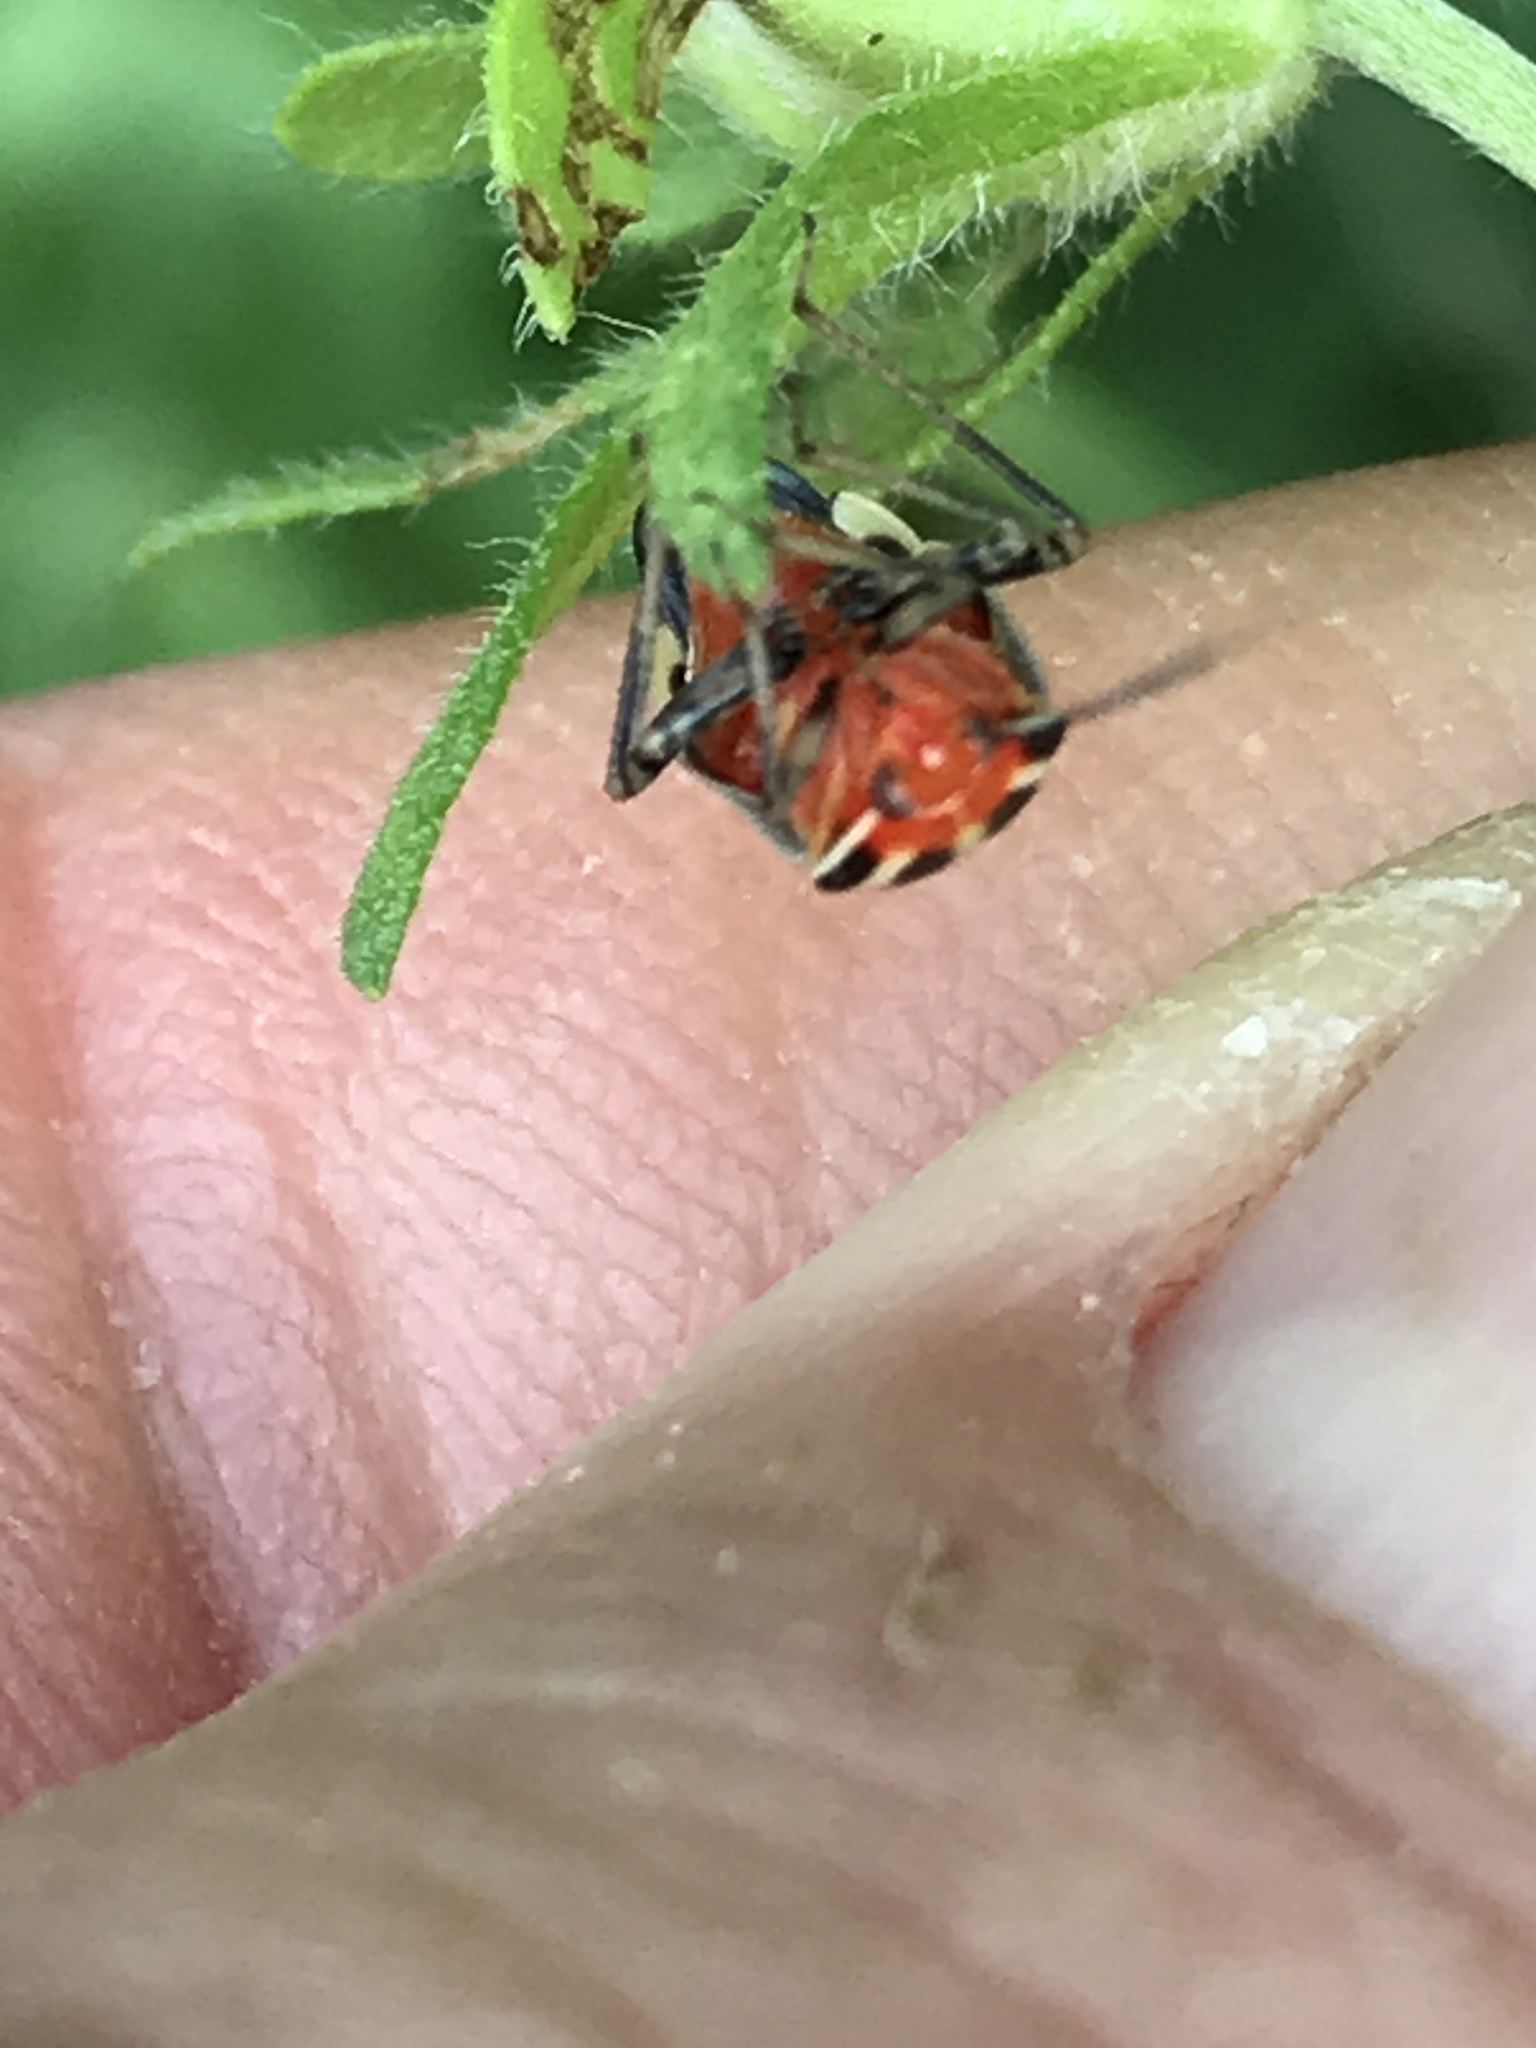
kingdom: Animalia
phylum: Arthropoda
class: Insecta
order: Hemiptera
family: Miridae
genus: Poecilocapsus
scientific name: Poecilocapsus lineatus
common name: Four-lined plant bug
